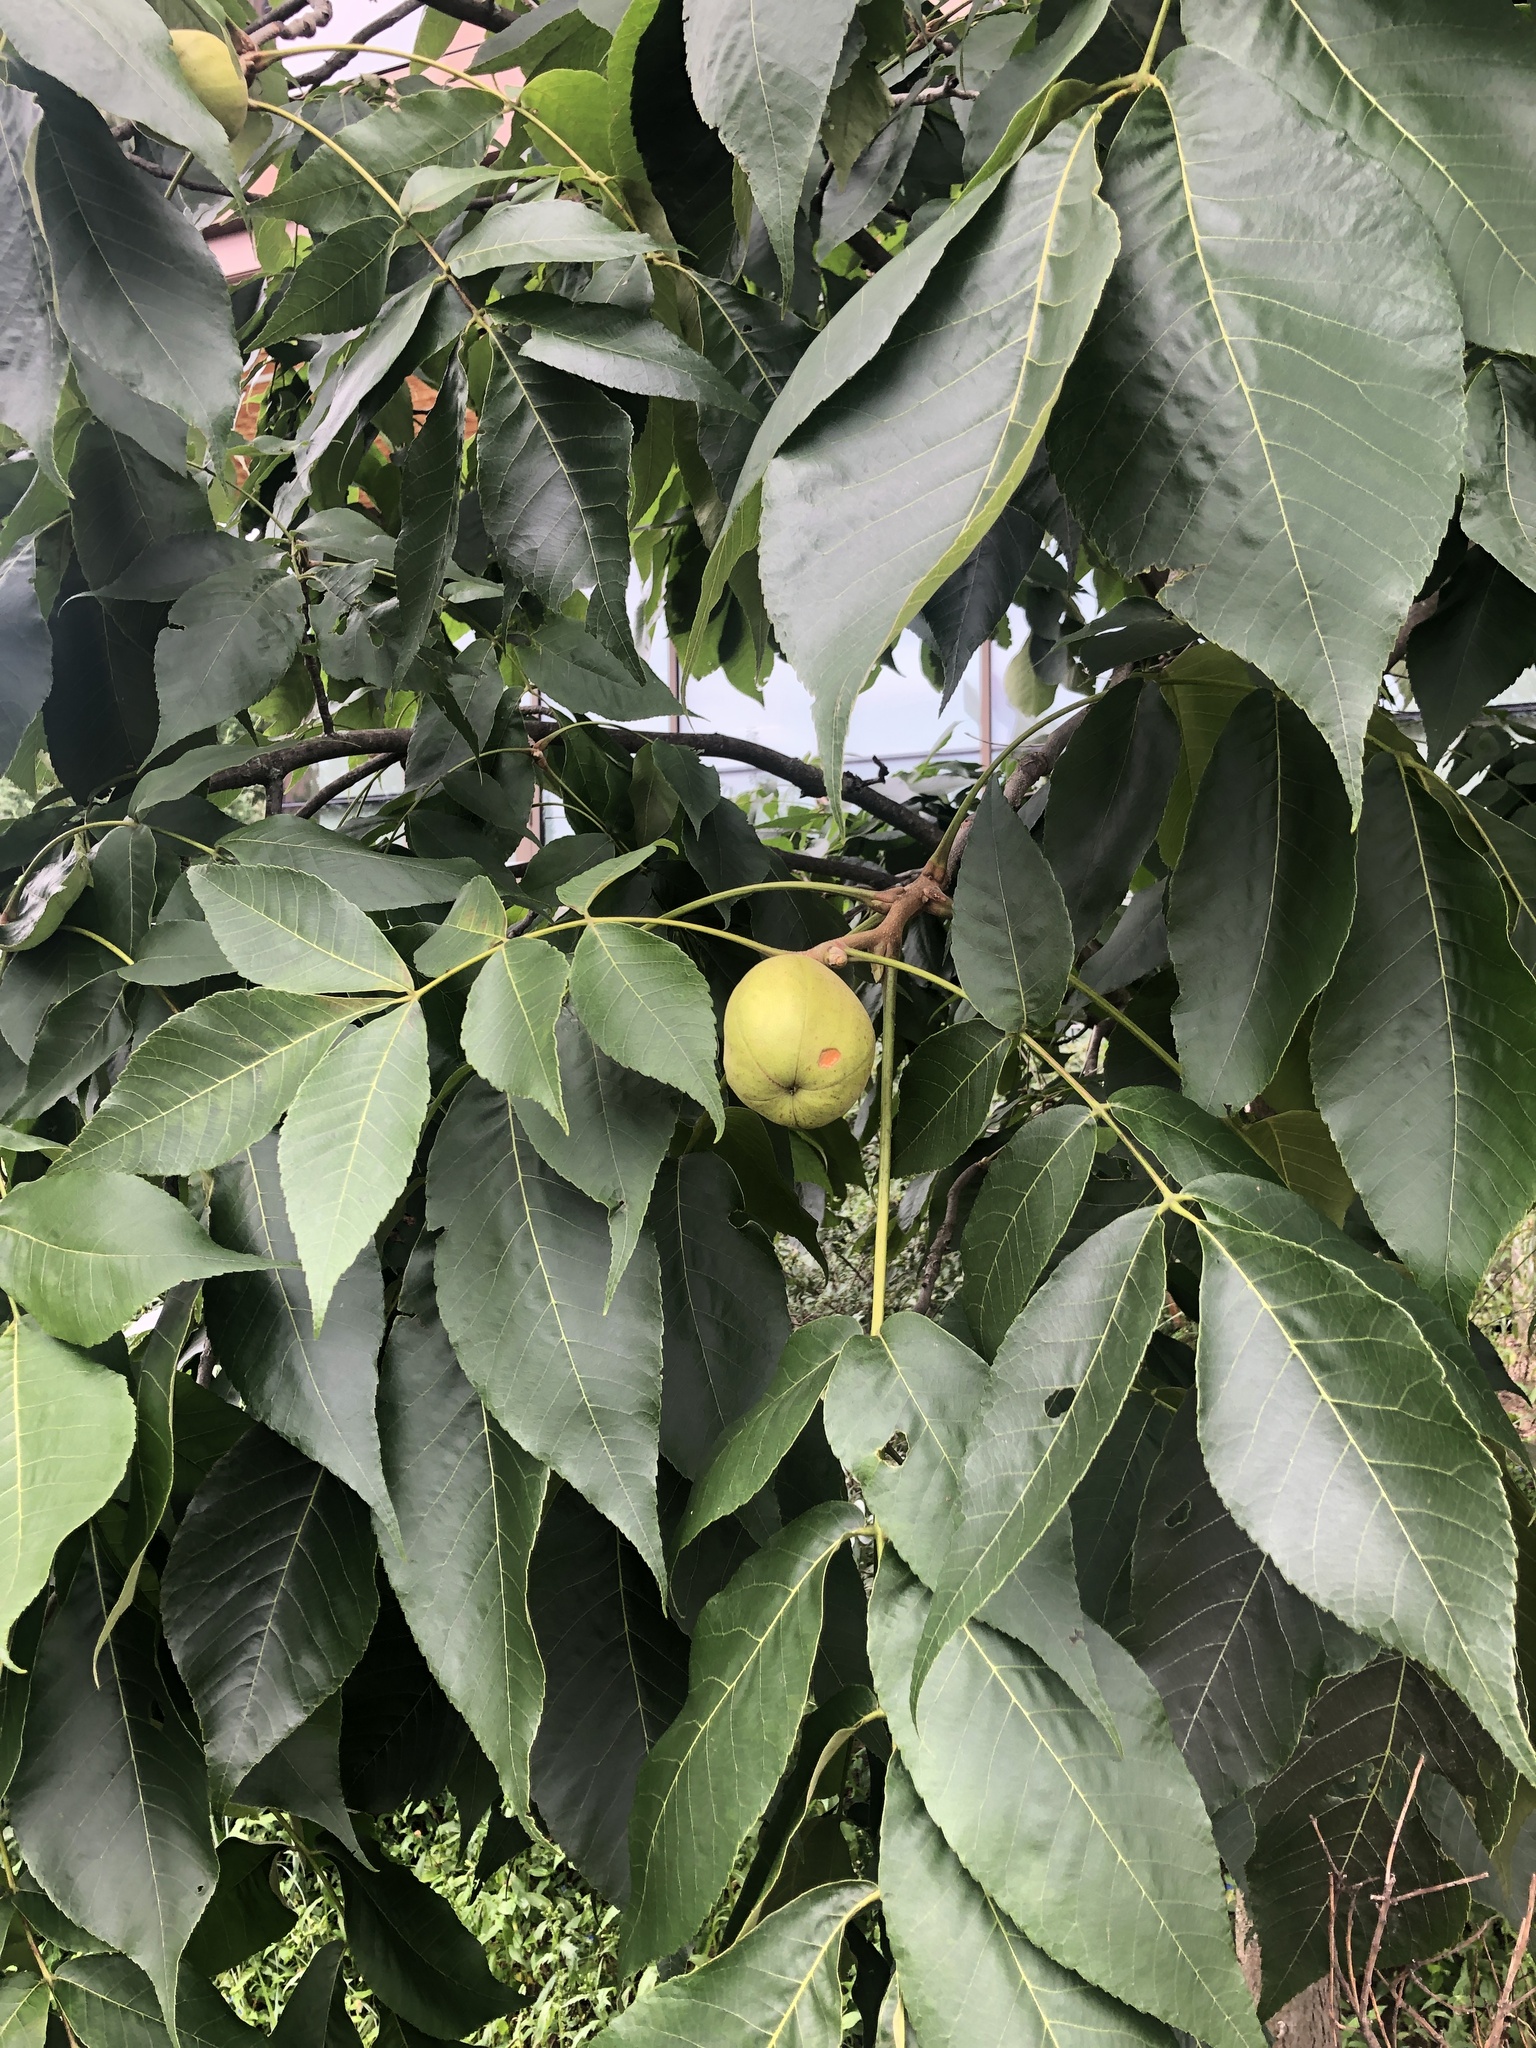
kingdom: Plantae
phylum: Tracheophyta
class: Magnoliopsida
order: Fagales
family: Juglandaceae
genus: Carya
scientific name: Carya ovata
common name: Shagbark hickory
